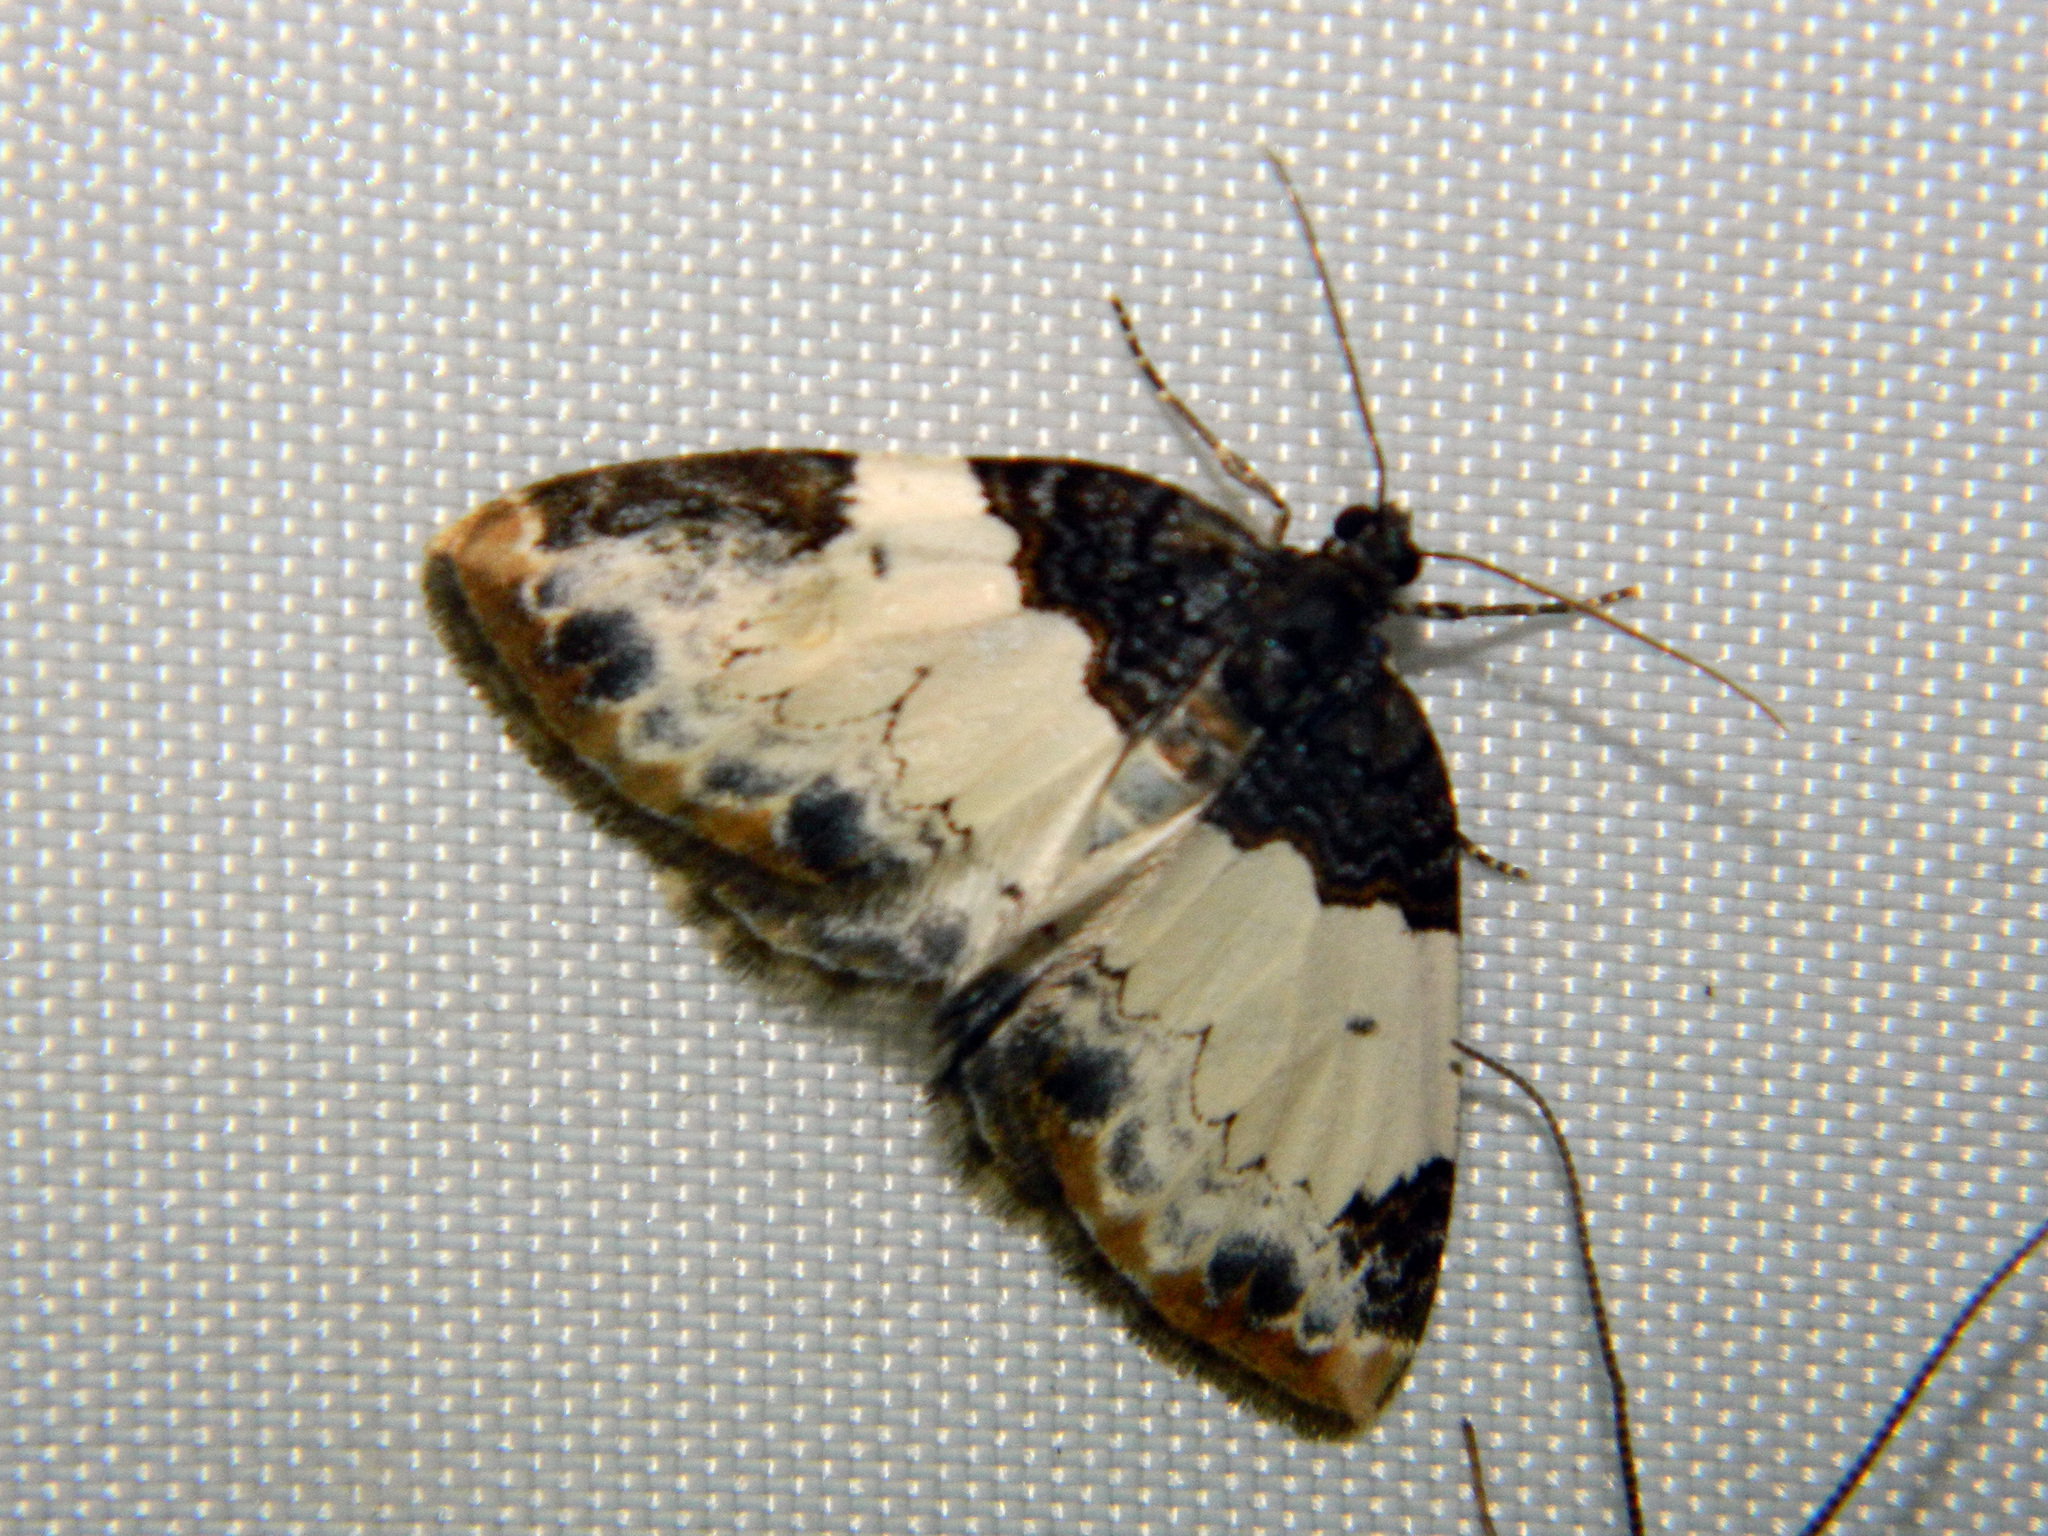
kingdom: Animalia
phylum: Arthropoda
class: Insecta
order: Lepidoptera
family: Geometridae
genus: Mesoleuca
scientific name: Mesoleuca ruficillata
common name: White-ribboned carpet moth
